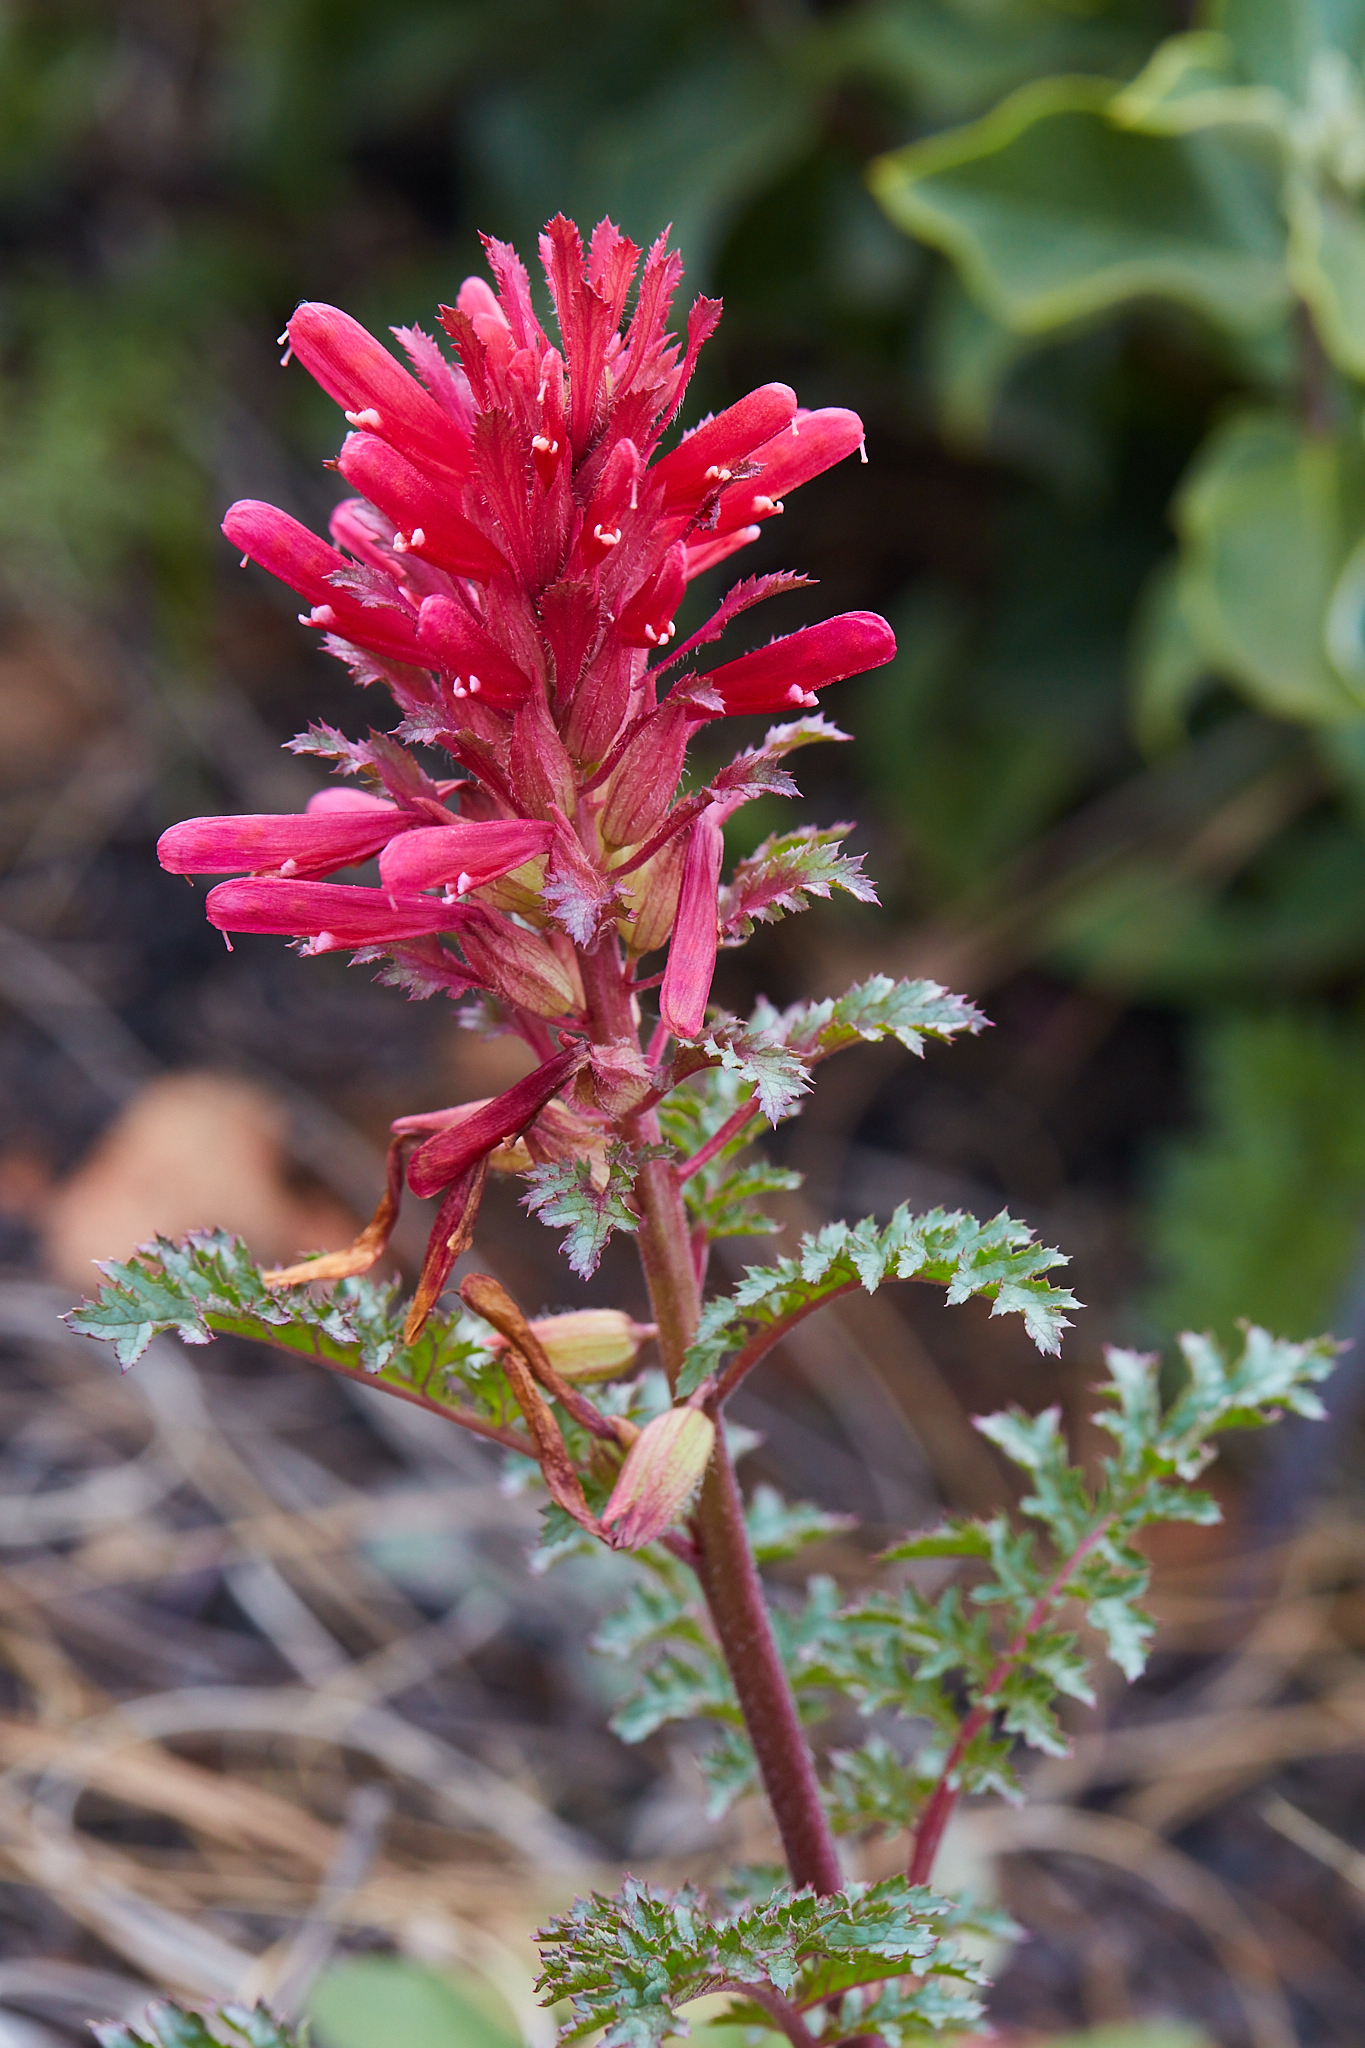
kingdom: Plantae
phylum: Tracheophyta
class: Magnoliopsida
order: Lamiales
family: Orobanchaceae
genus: Pedicularis
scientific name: Pedicularis densiflora
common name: Indian warrior
